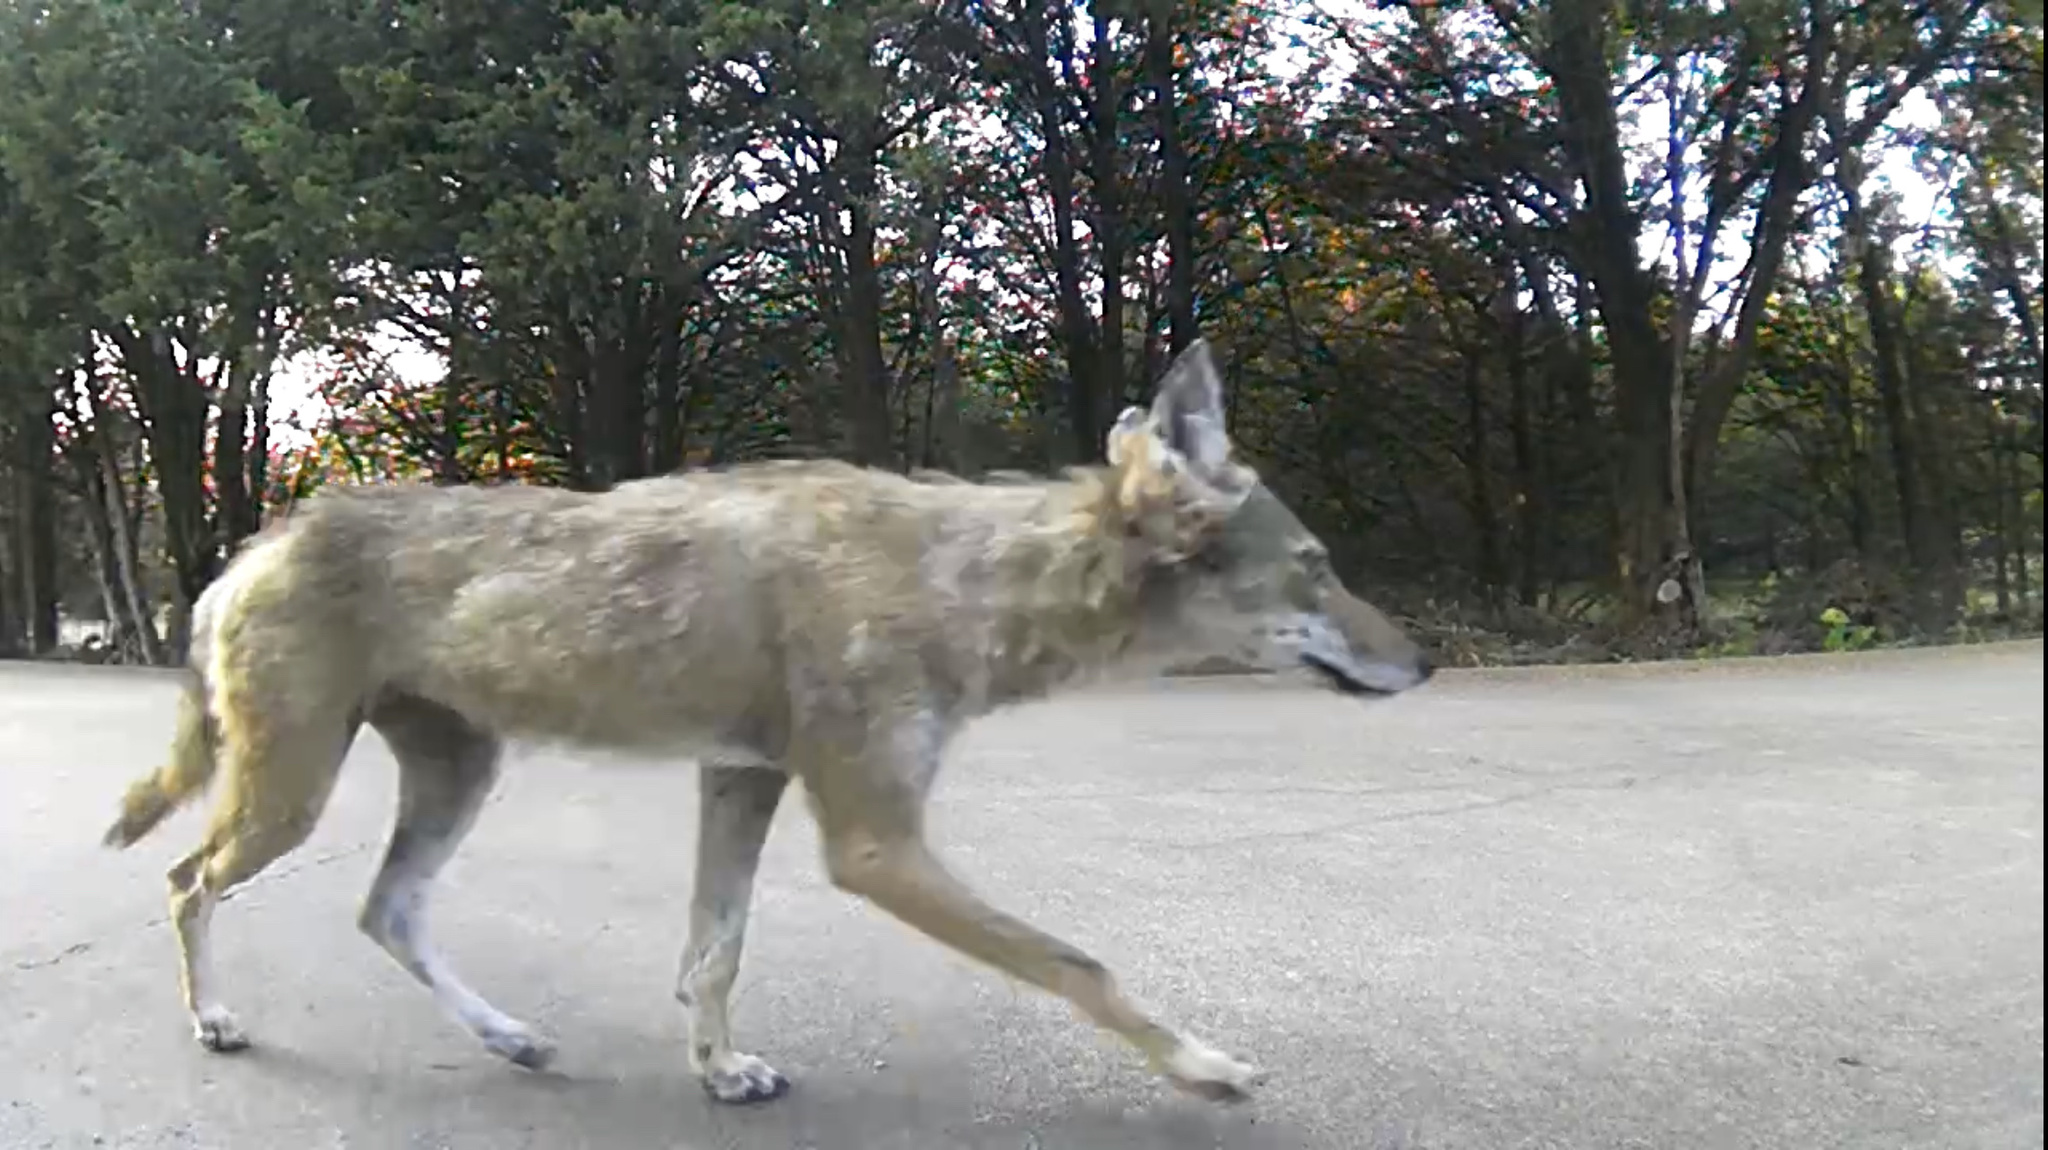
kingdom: Animalia
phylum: Chordata
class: Mammalia
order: Carnivora
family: Canidae
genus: Canis
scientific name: Canis latrans
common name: Coyote
